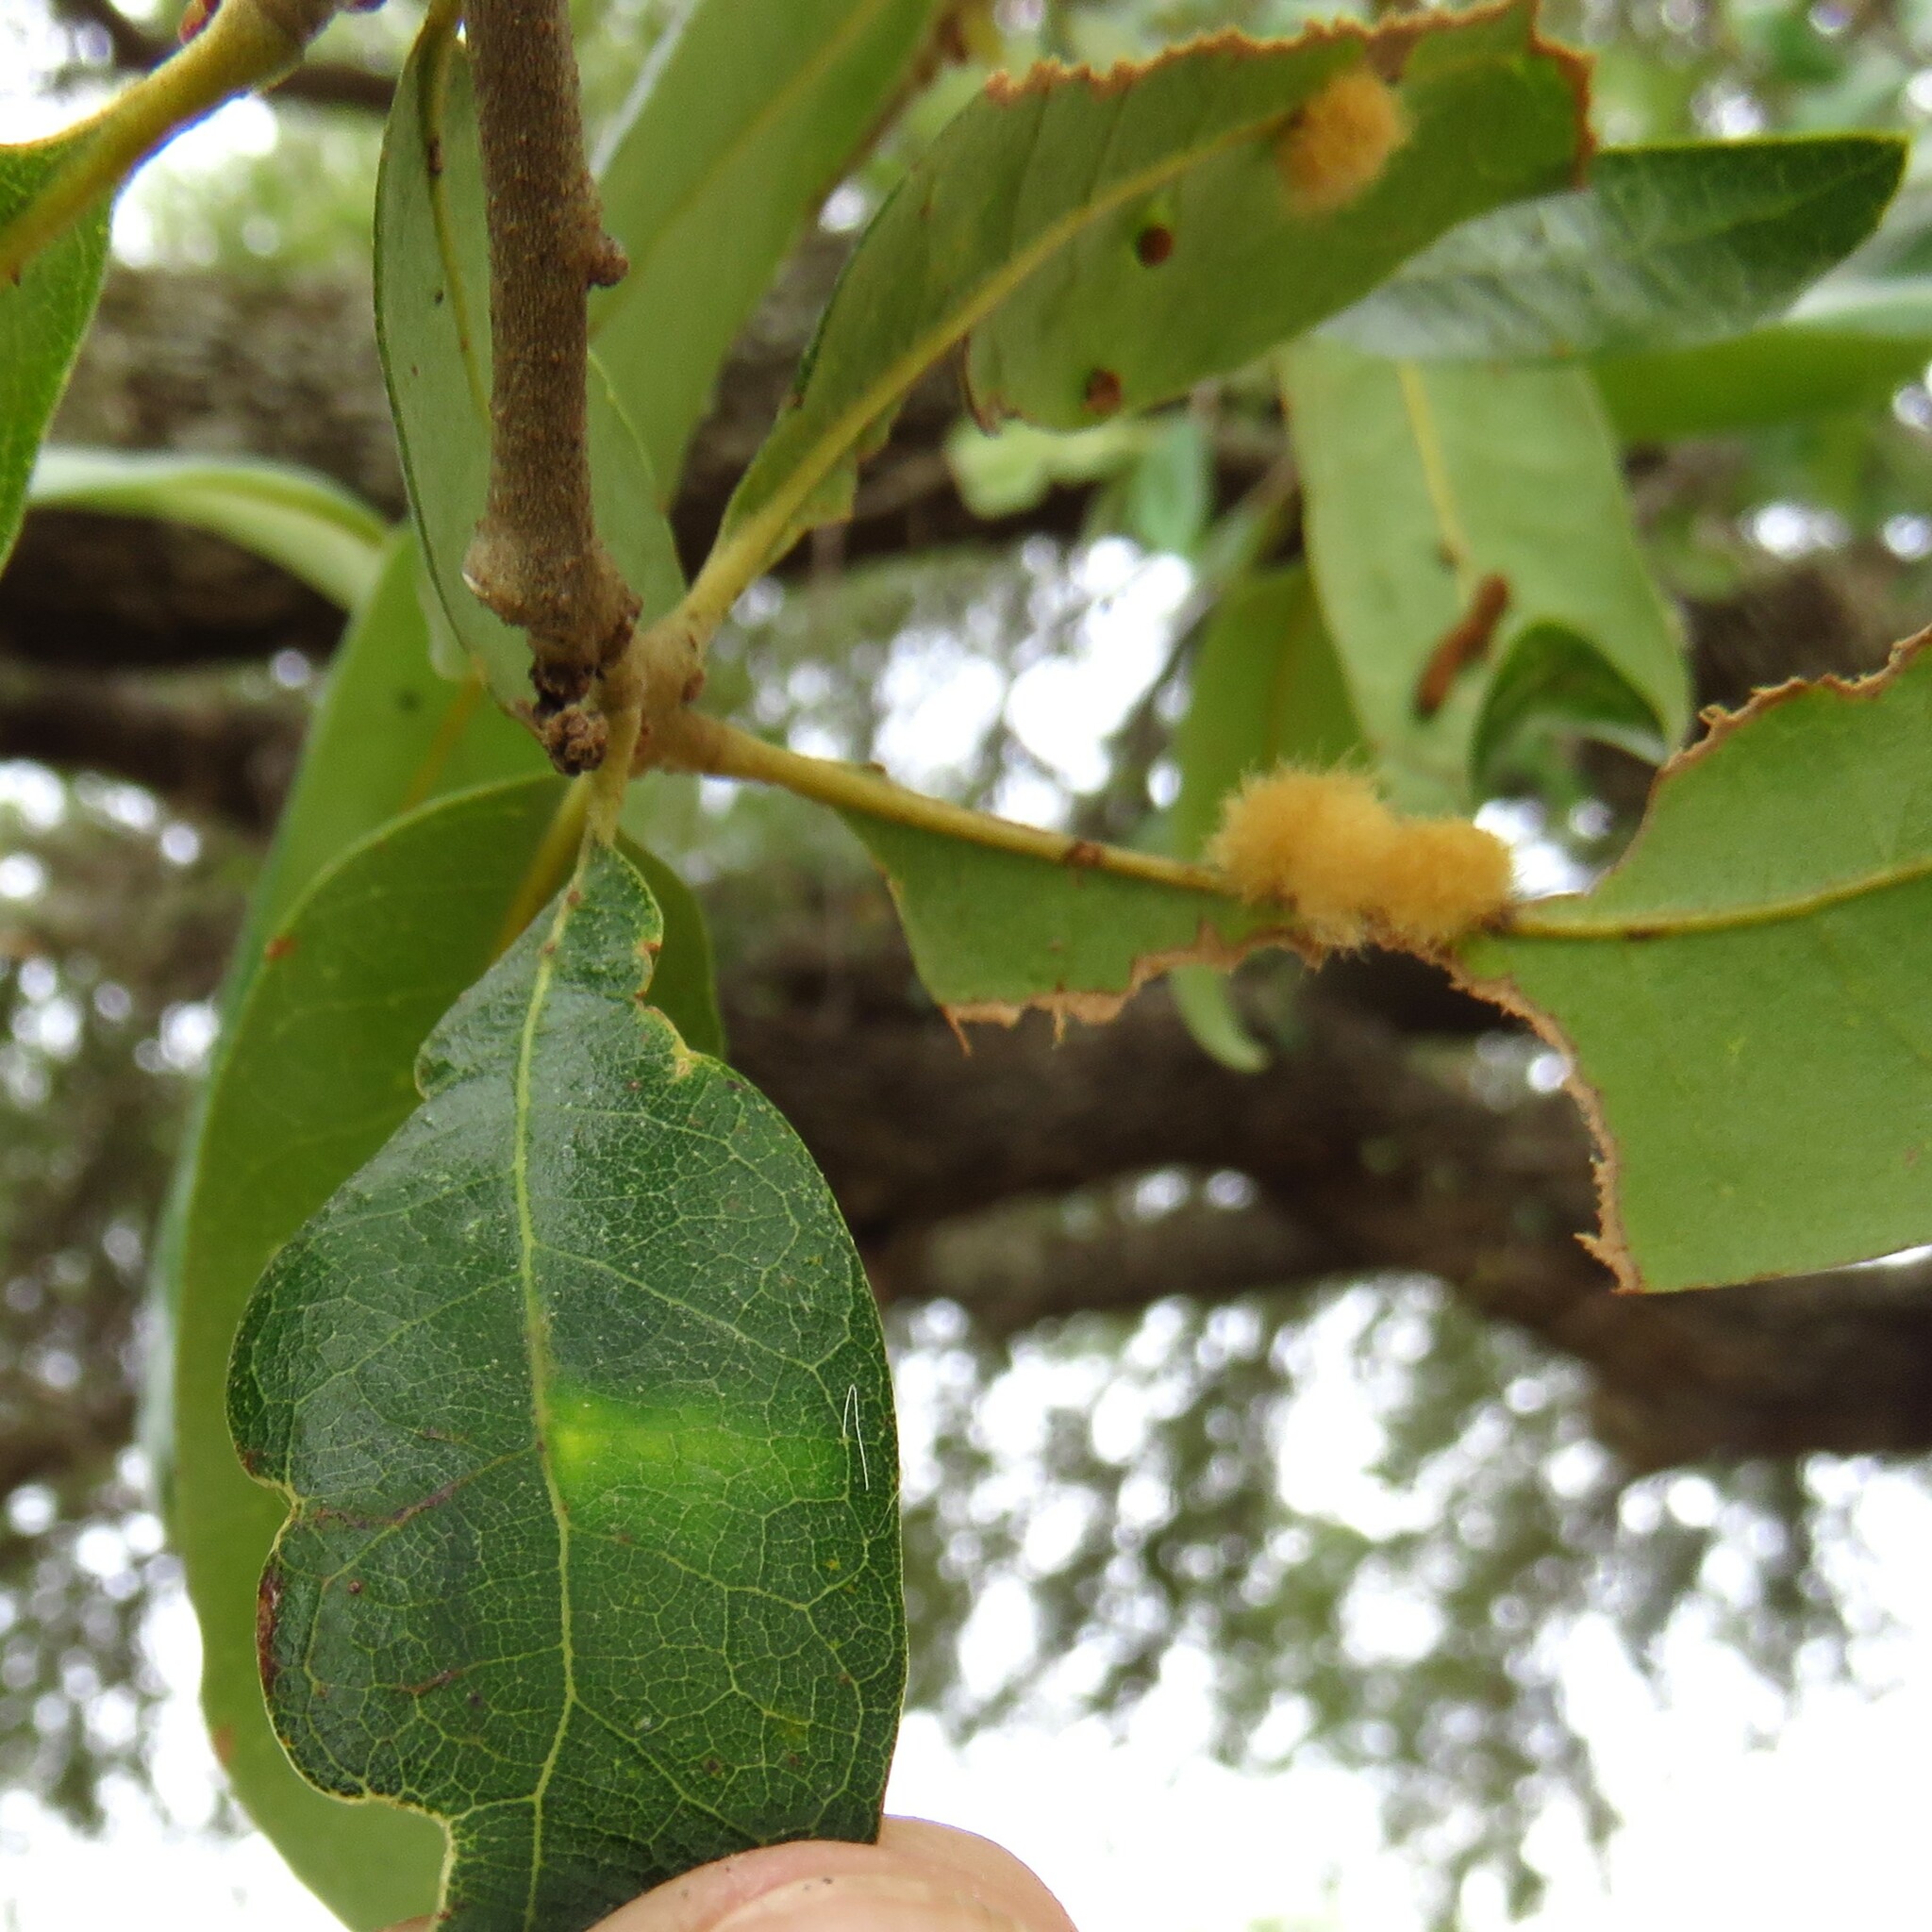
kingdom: Animalia
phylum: Arthropoda
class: Insecta
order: Hymenoptera
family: Cynipidae
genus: Andricus
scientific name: Andricus Druon quercuslanigerum
